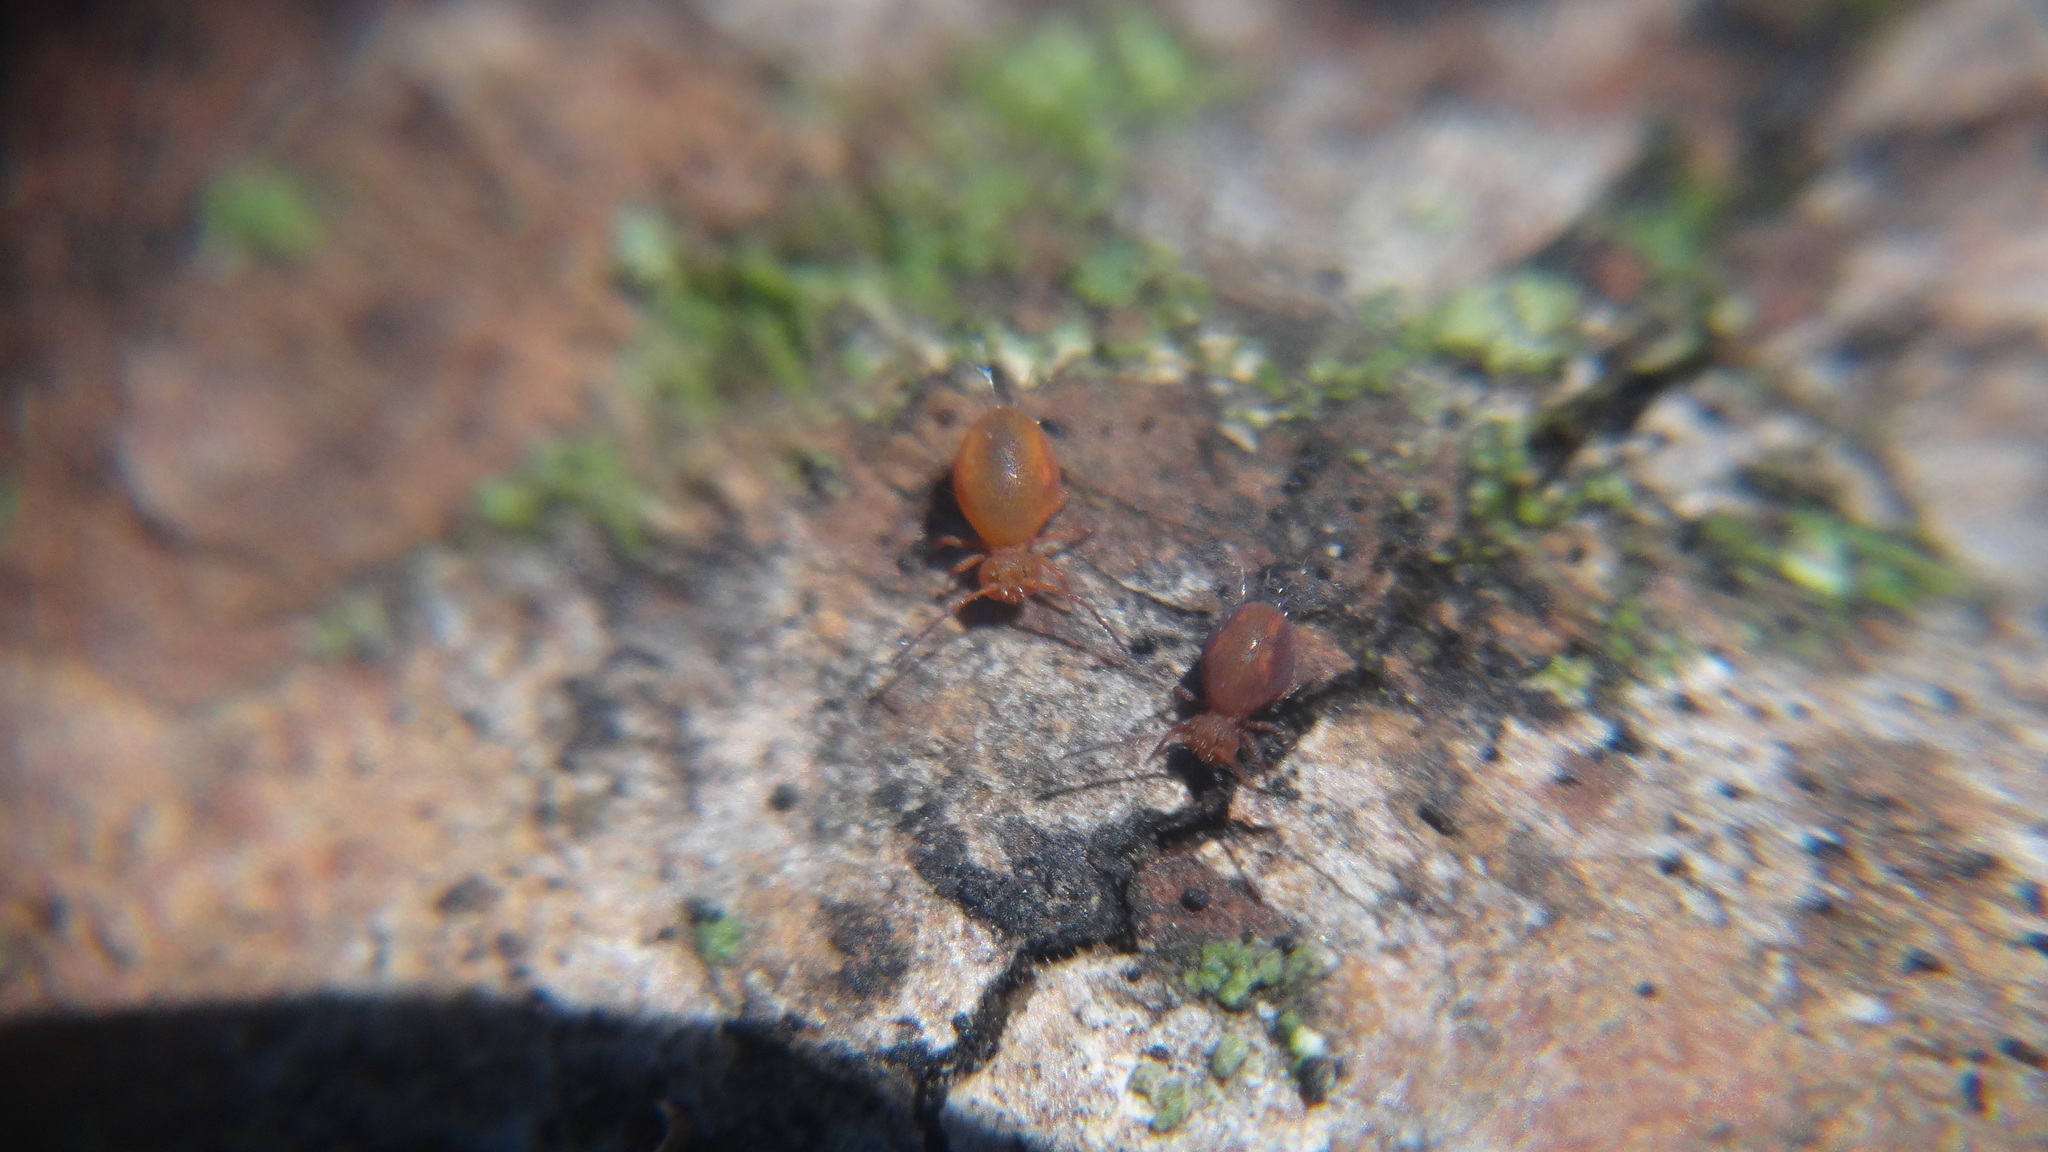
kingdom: Animalia
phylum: Arthropoda
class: Collembola
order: Symphypleona
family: Dicyrtomidae
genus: Dicyrtoma
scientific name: Dicyrtoma fusca
